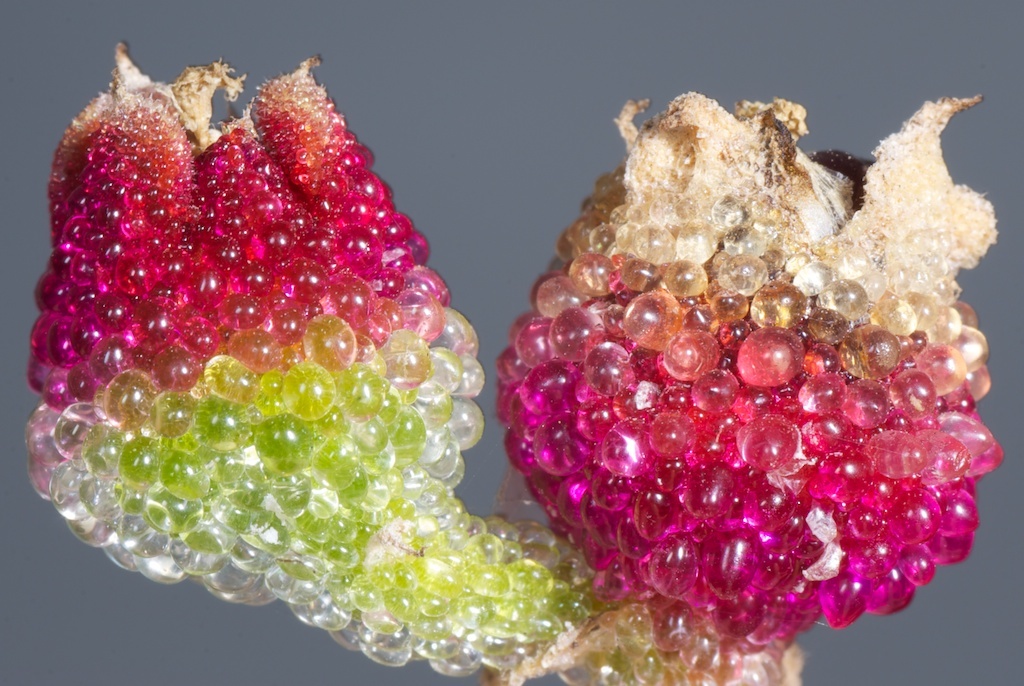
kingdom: Plantae
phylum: Tracheophyta
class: Magnoliopsida
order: Caryophyllales
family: Aizoaceae
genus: Mesembryanthemum
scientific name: Mesembryanthemum crystallinum
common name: Common iceplant
